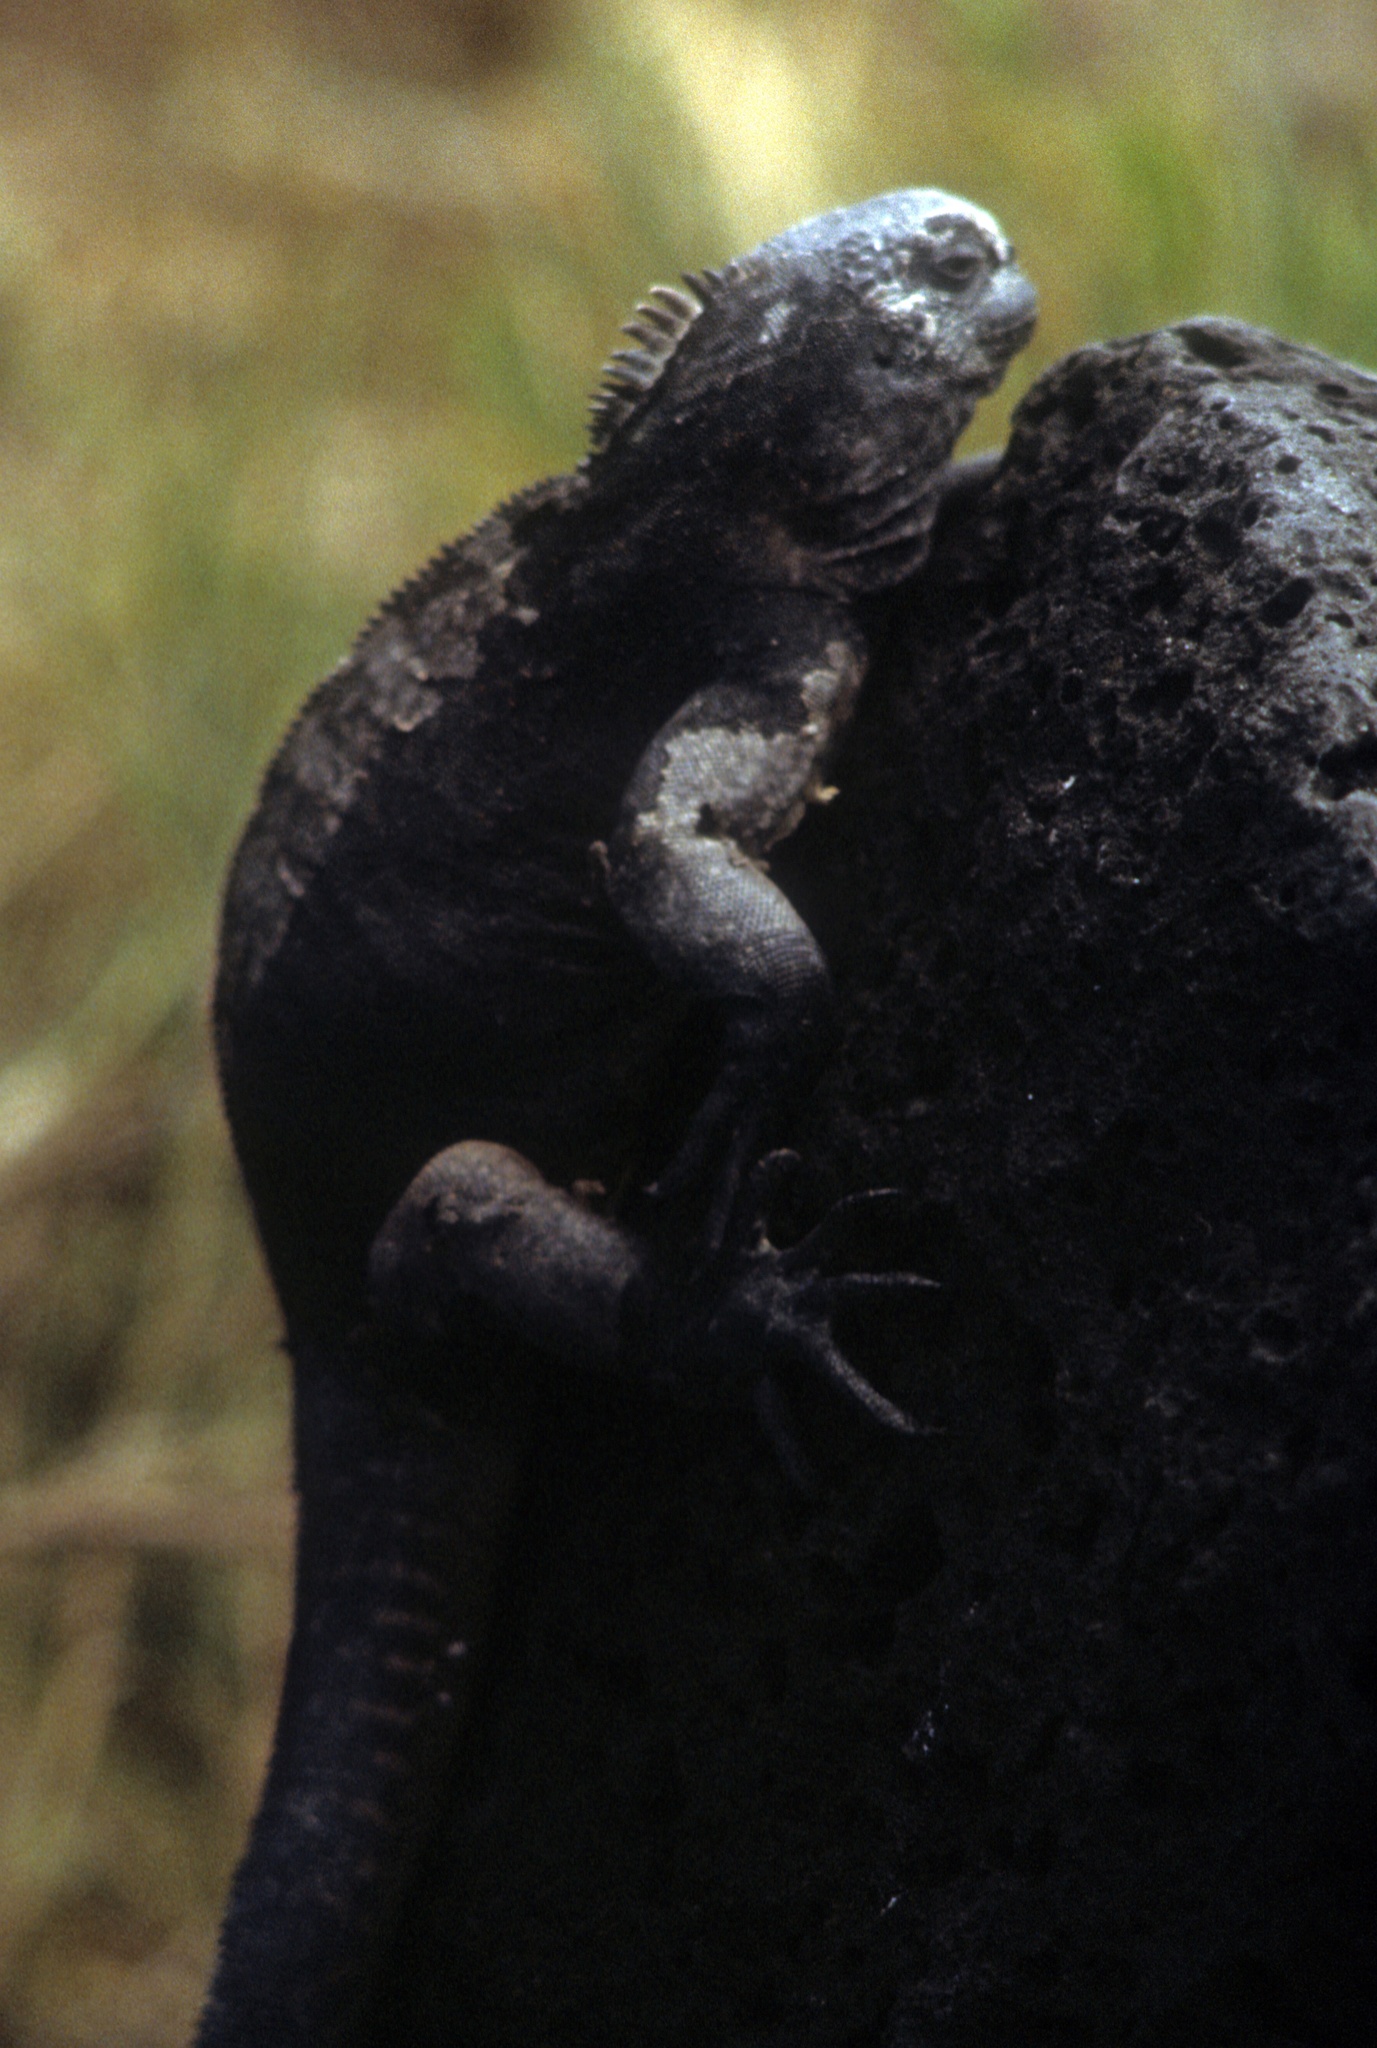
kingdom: Animalia
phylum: Chordata
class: Squamata
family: Iguanidae
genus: Amblyrhynchus
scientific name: Amblyrhynchus cristatus
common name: Marine iguana
